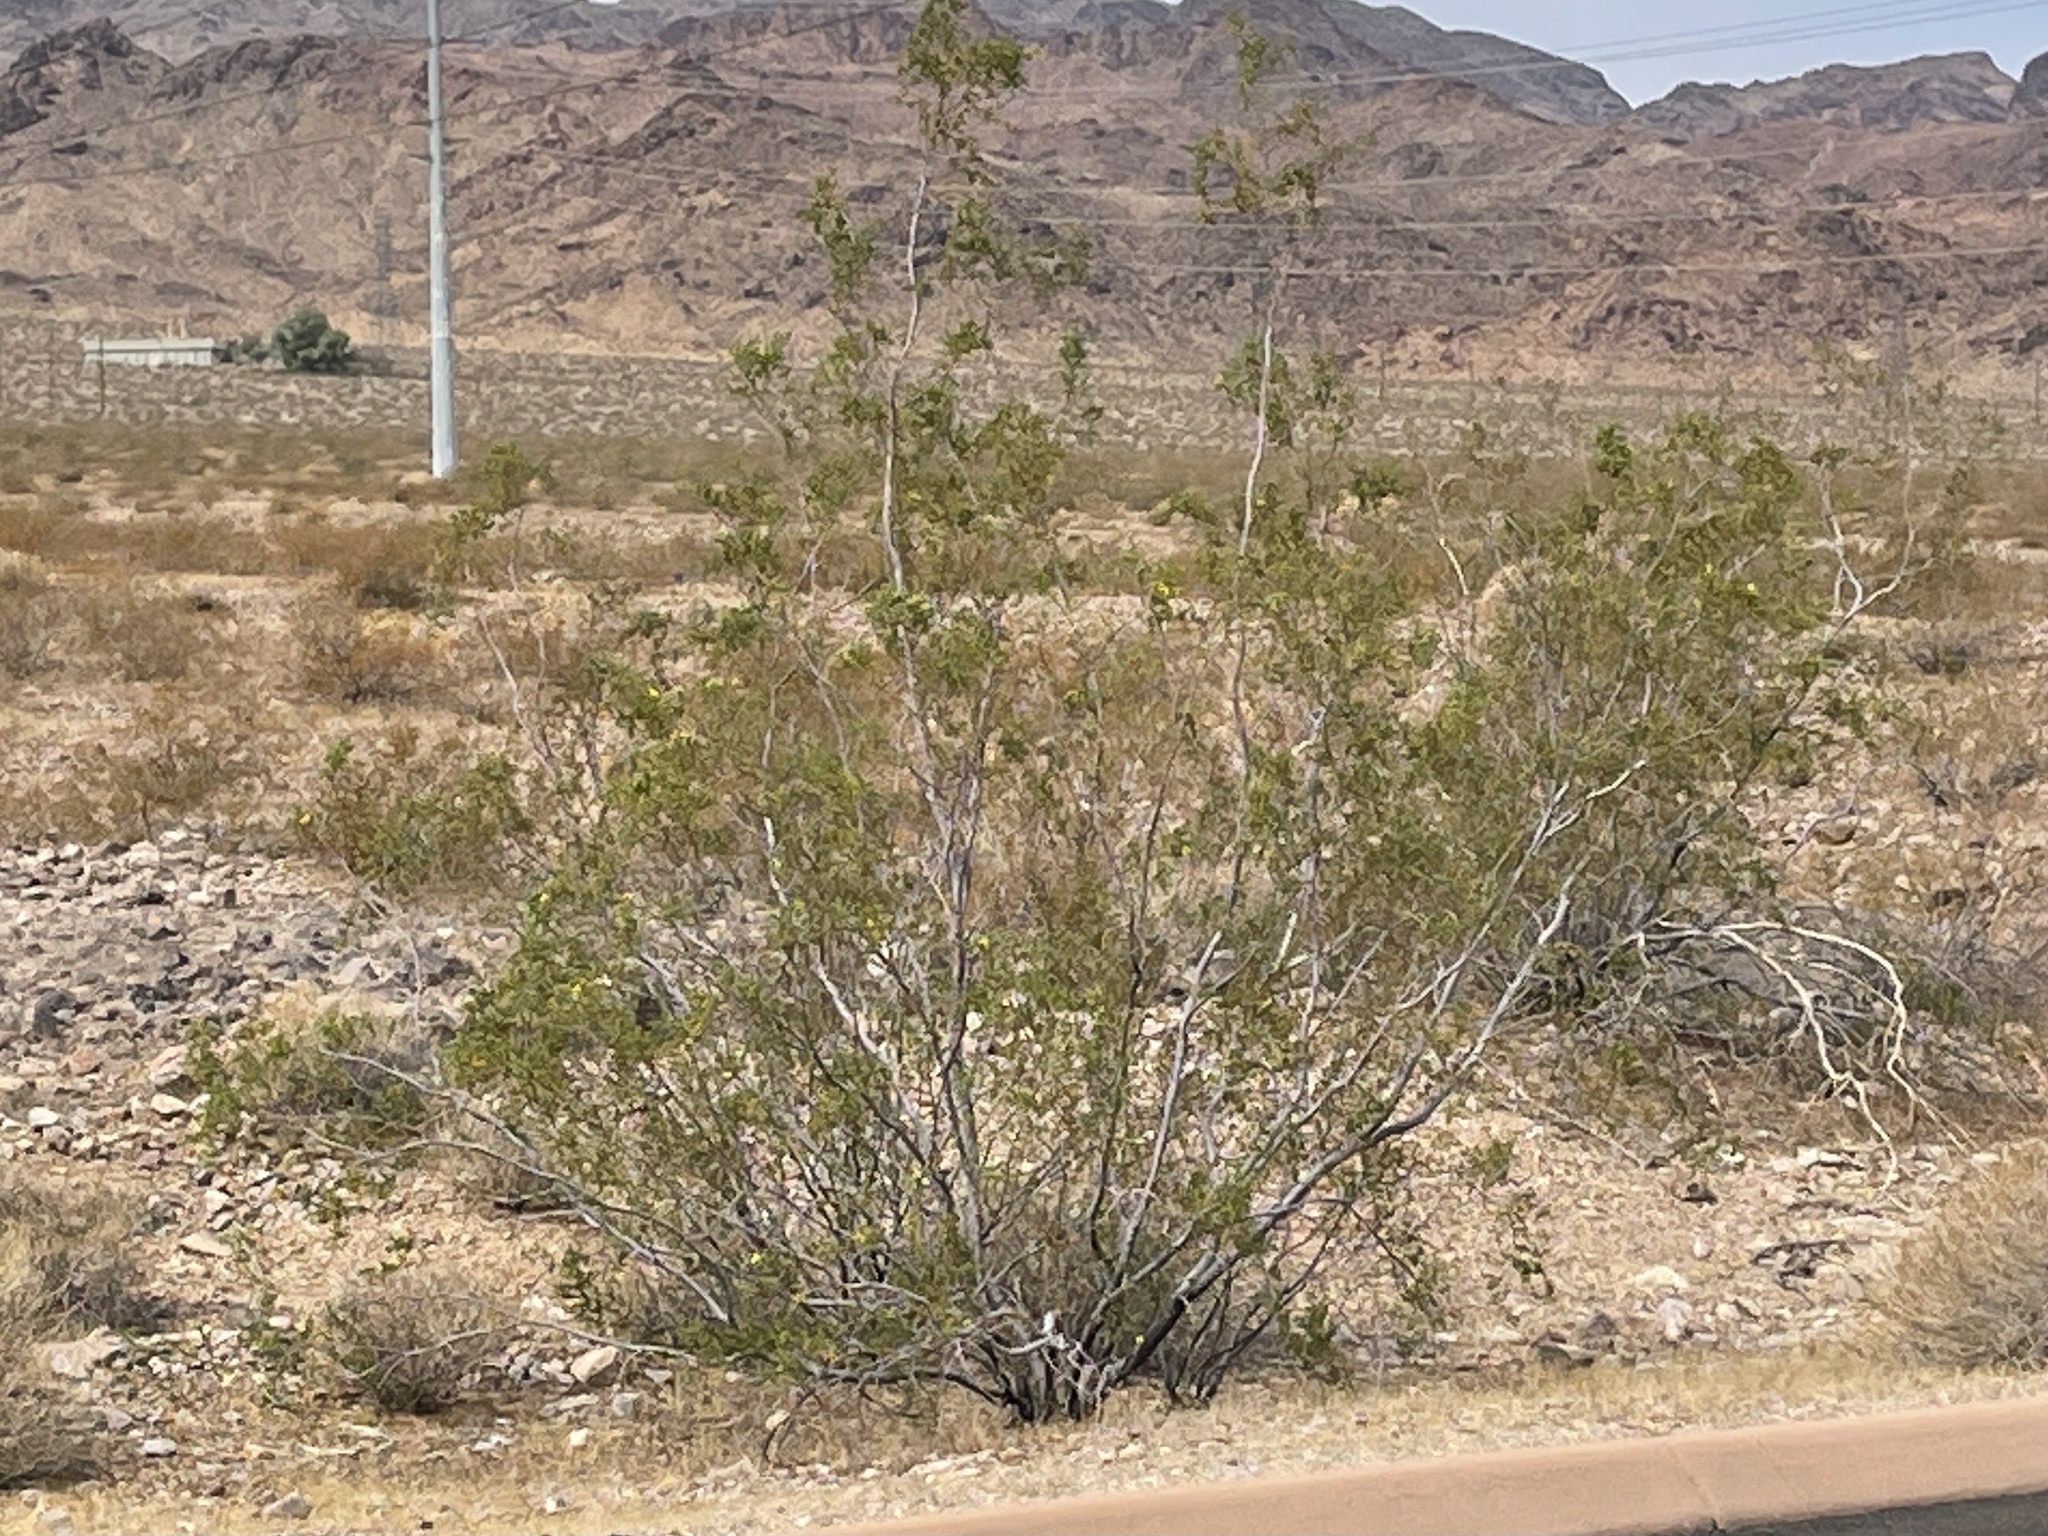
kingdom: Plantae
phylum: Tracheophyta
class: Magnoliopsida
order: Zygophyllales
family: Zygophyllaceae
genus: Larrea
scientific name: Larrea tridentata
